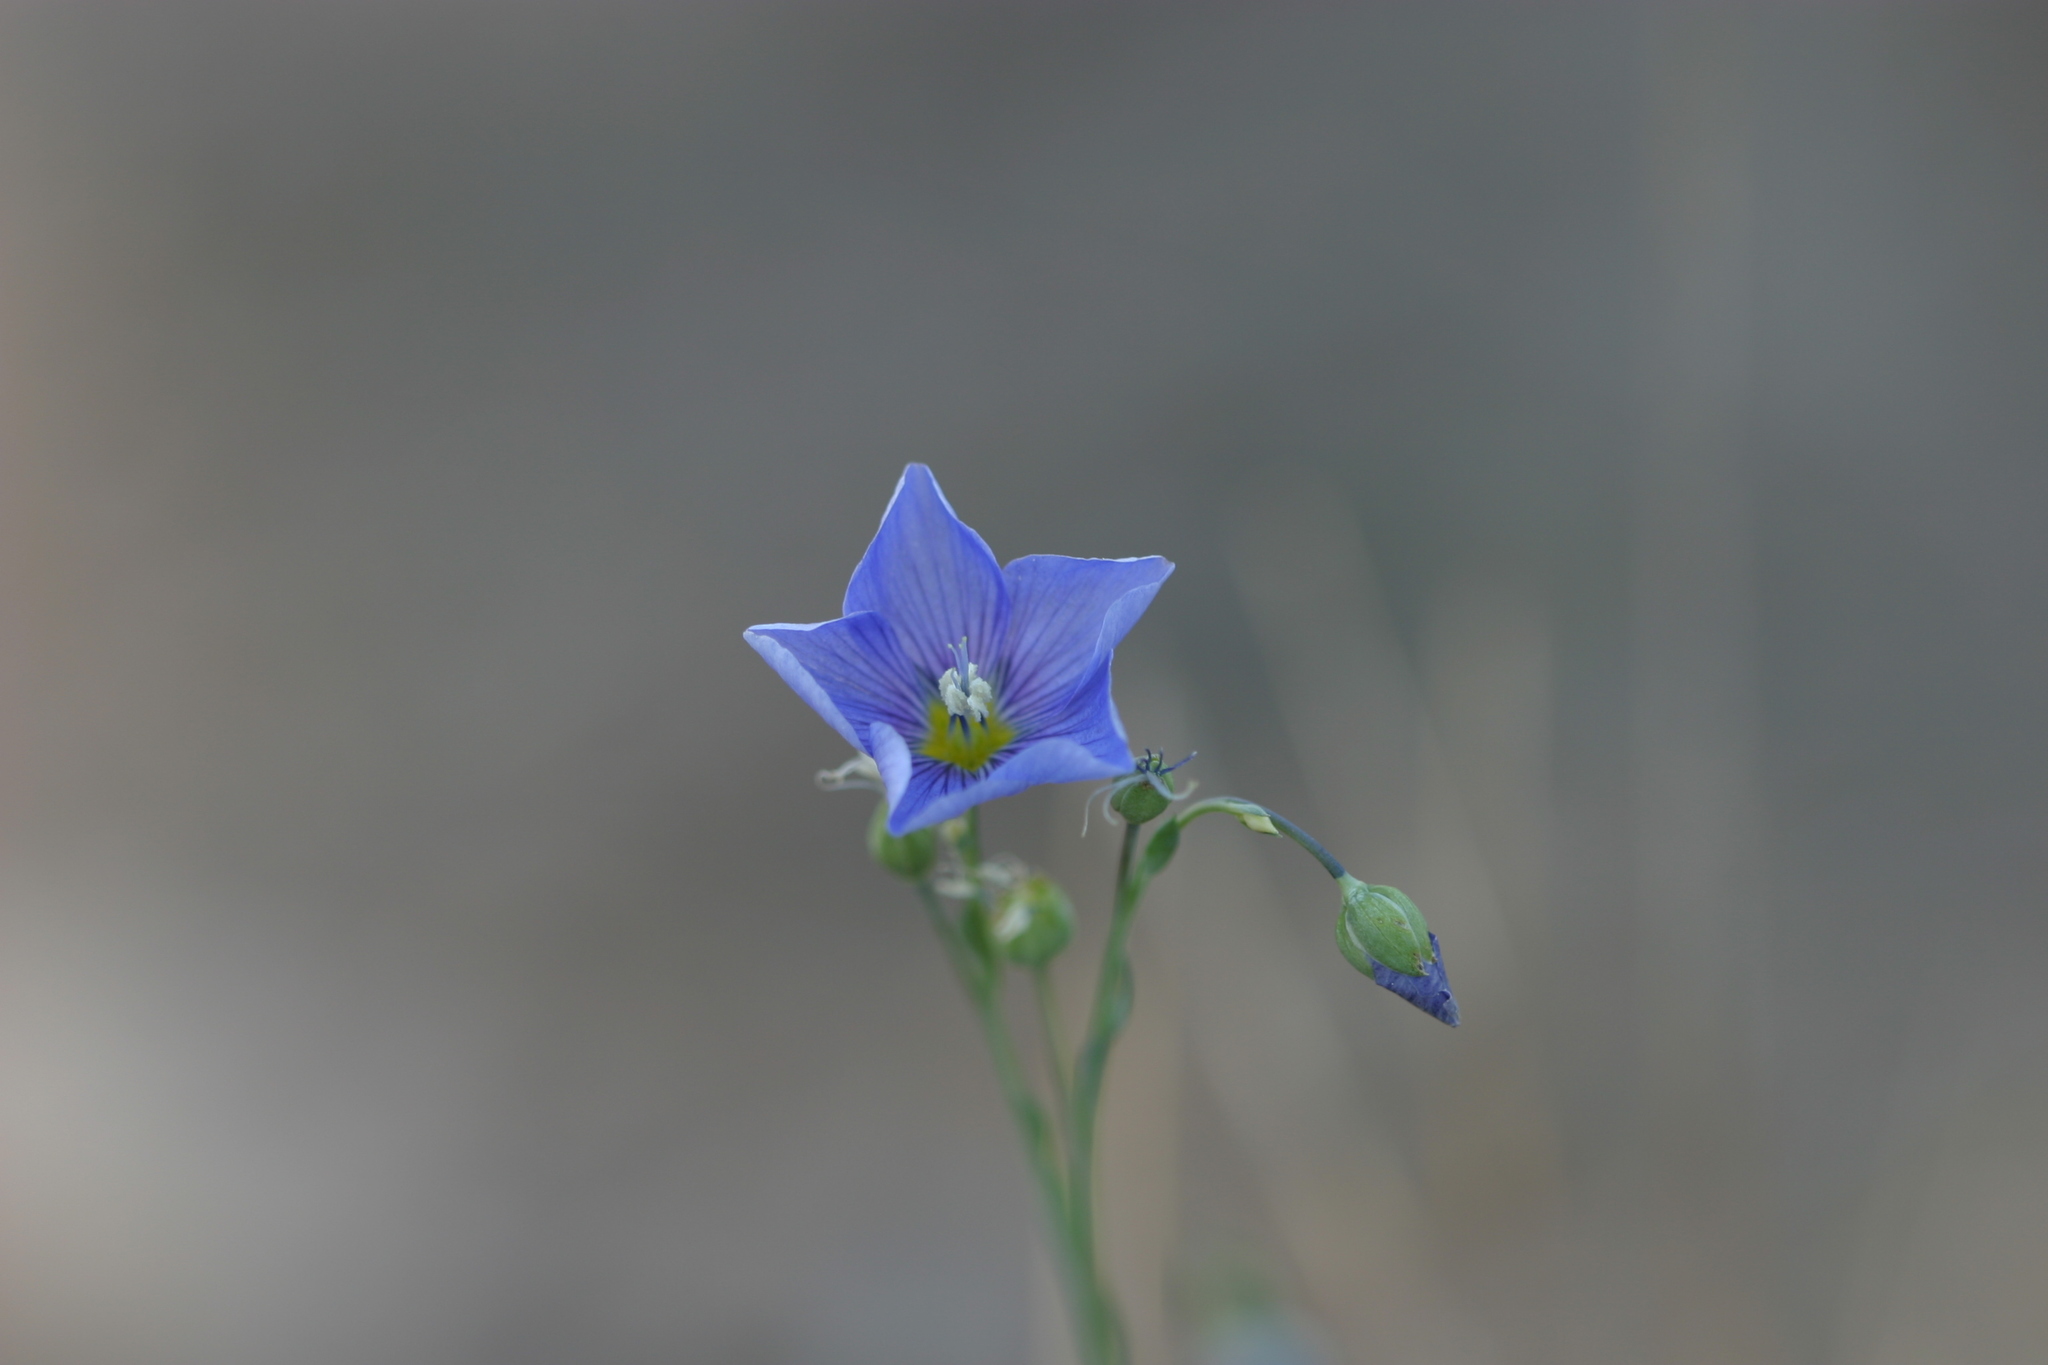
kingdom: Plantae
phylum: Tracheophyta
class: Magnoliopsida
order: Malpighiales
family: Linaceae
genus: Linum
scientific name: Linum lewisii
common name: Prairie flax
